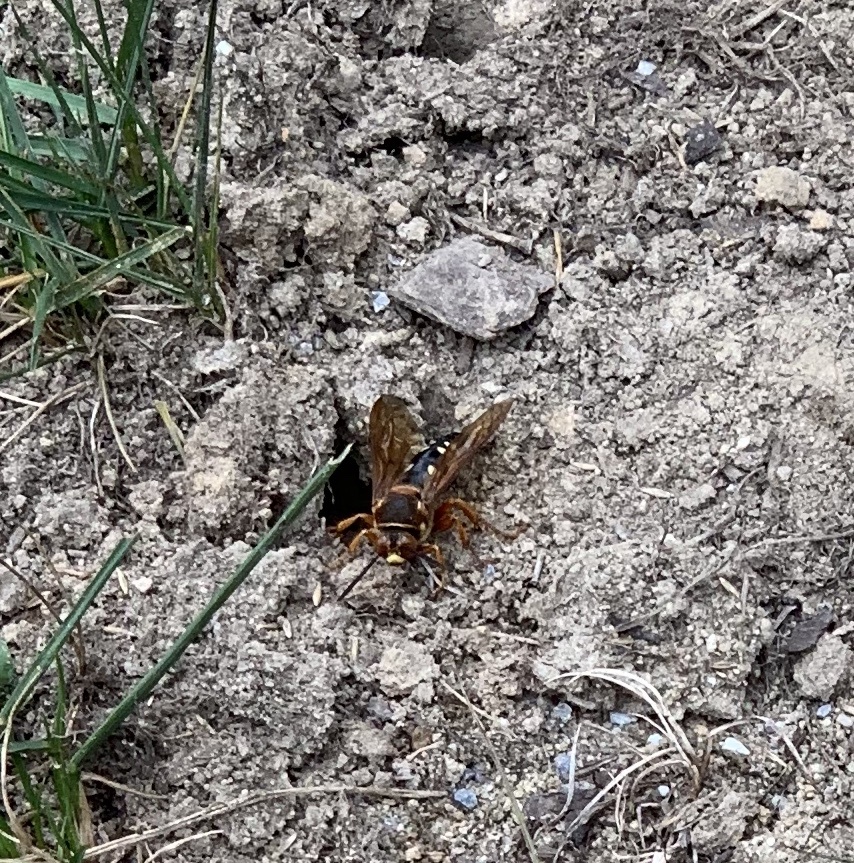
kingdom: Animalia
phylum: Arthropoda
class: Insecta
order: Hymenoptera
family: Crabronidae
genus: Sphecius
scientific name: Sphecius speciosus
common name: Cicada killer
